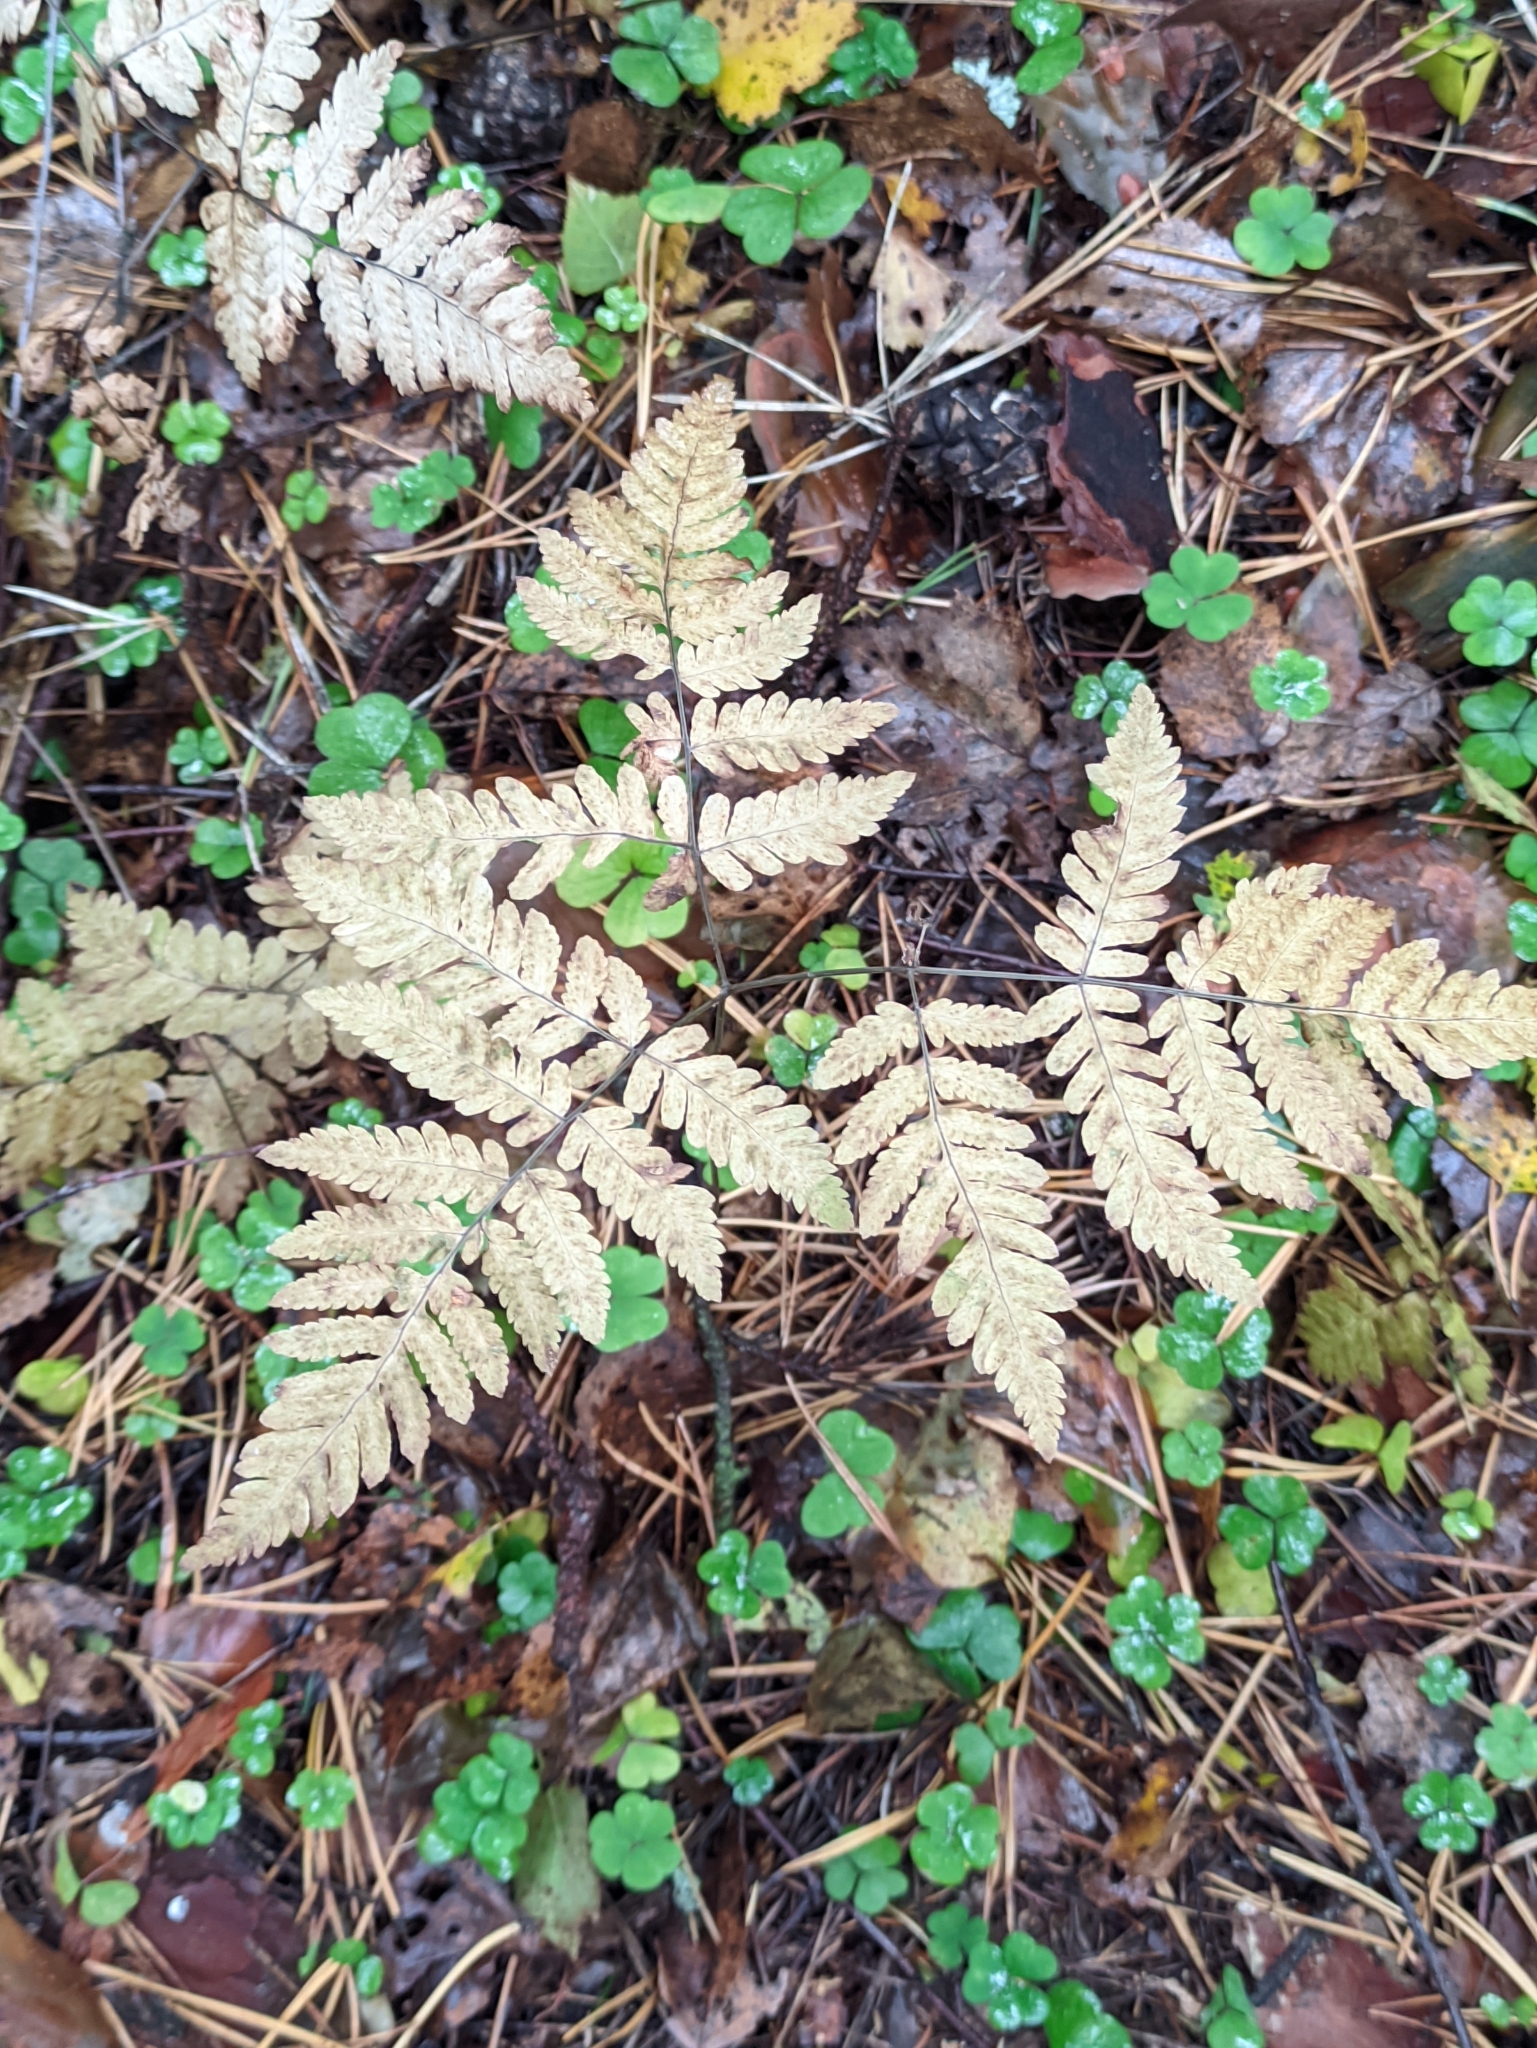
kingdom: Plantae
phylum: Tracheophyta
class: Polypodiopsida
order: Polypodiales
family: Cystopteridaceae
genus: Gymnocarpium
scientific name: Gymnocarpium dryopteris
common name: Oak fern
